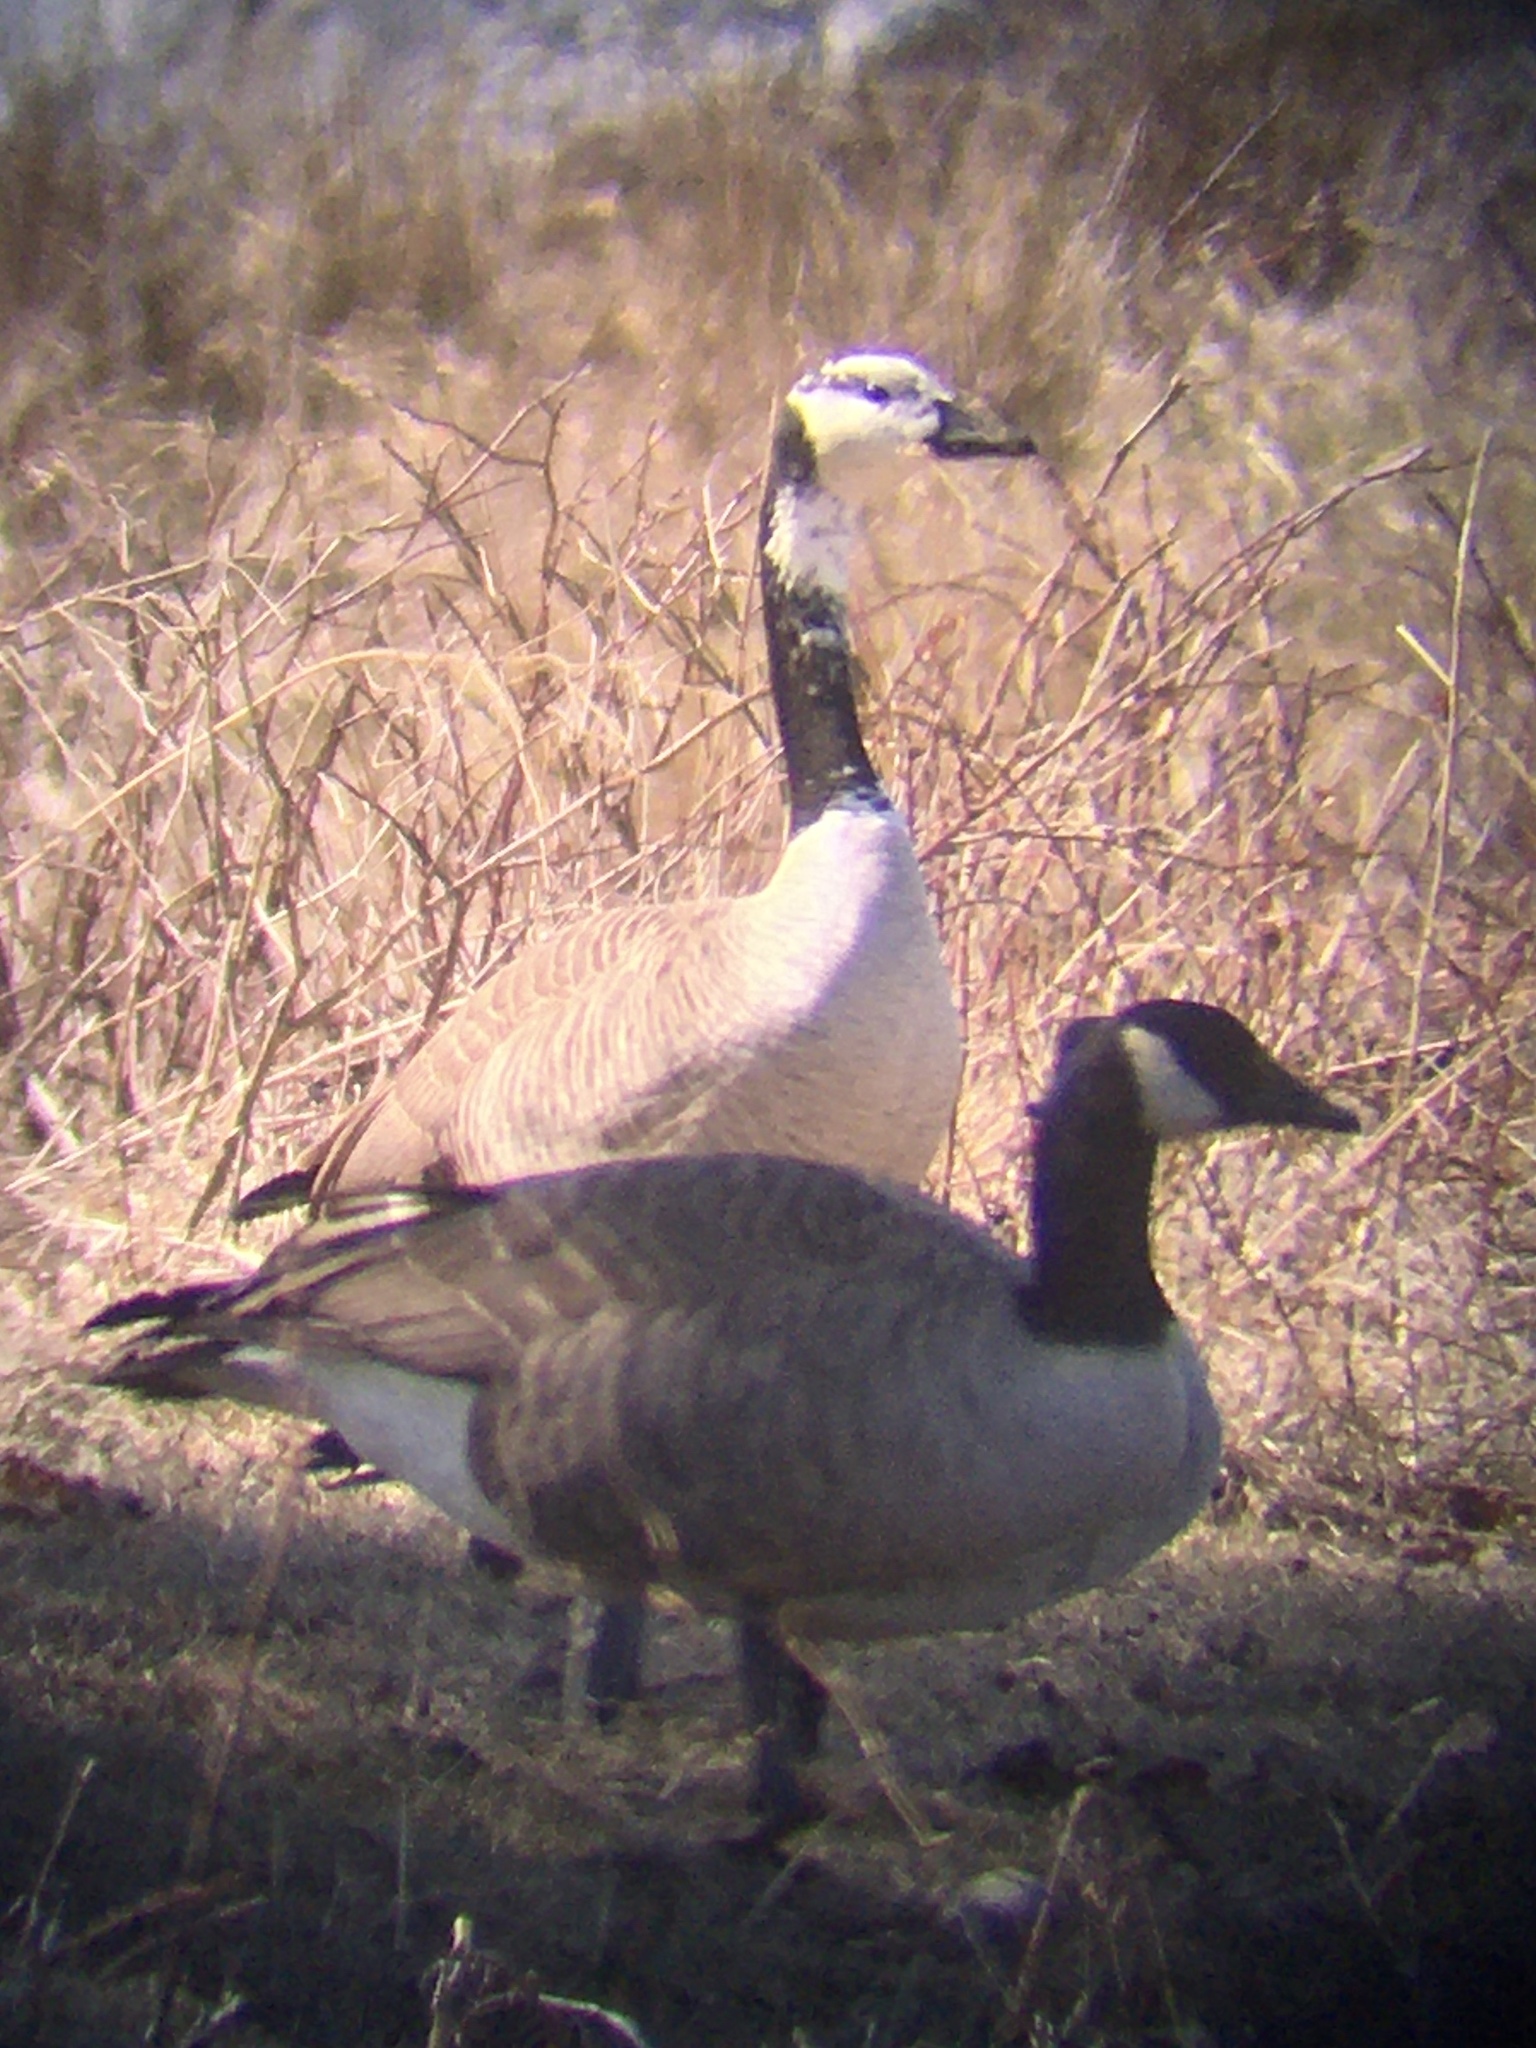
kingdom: Animalia
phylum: Chordata
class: Aves
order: Anseriformes
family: Anatidae
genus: Branta
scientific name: Branta canadensis
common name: Canada goose
